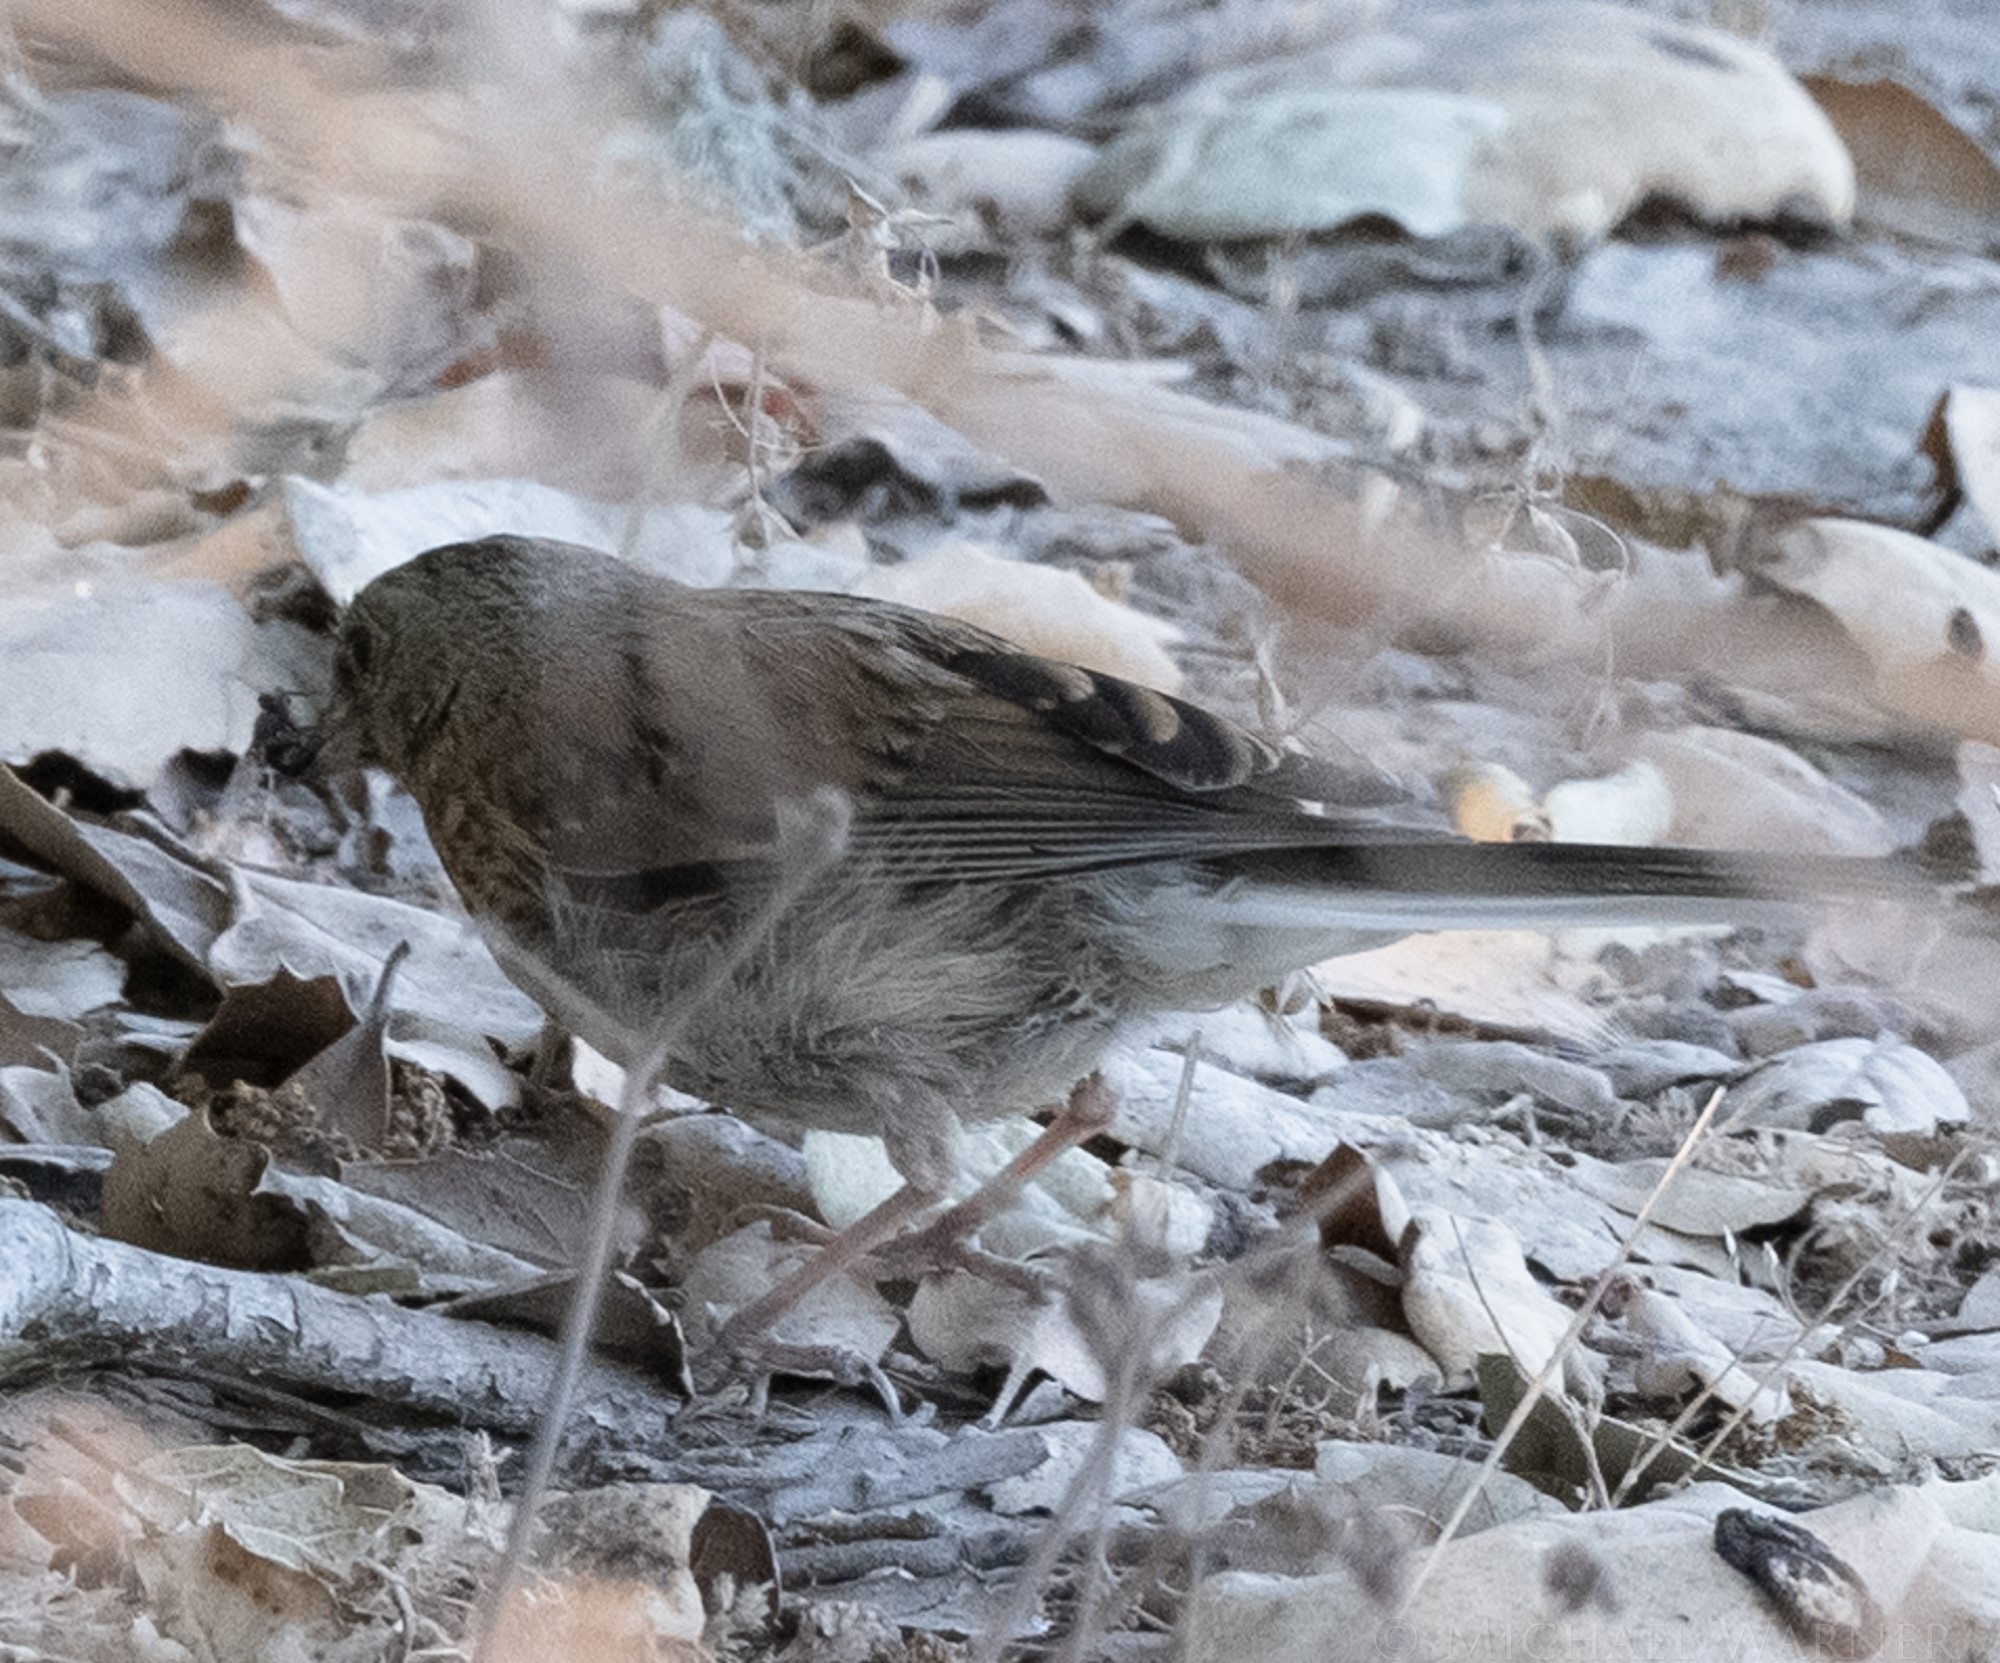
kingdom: Animalia
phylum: Chordata
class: Aves
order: Passeriformes
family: Passerellidae
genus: Junco
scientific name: Junco hyemalis
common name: Dark-eyed junco
